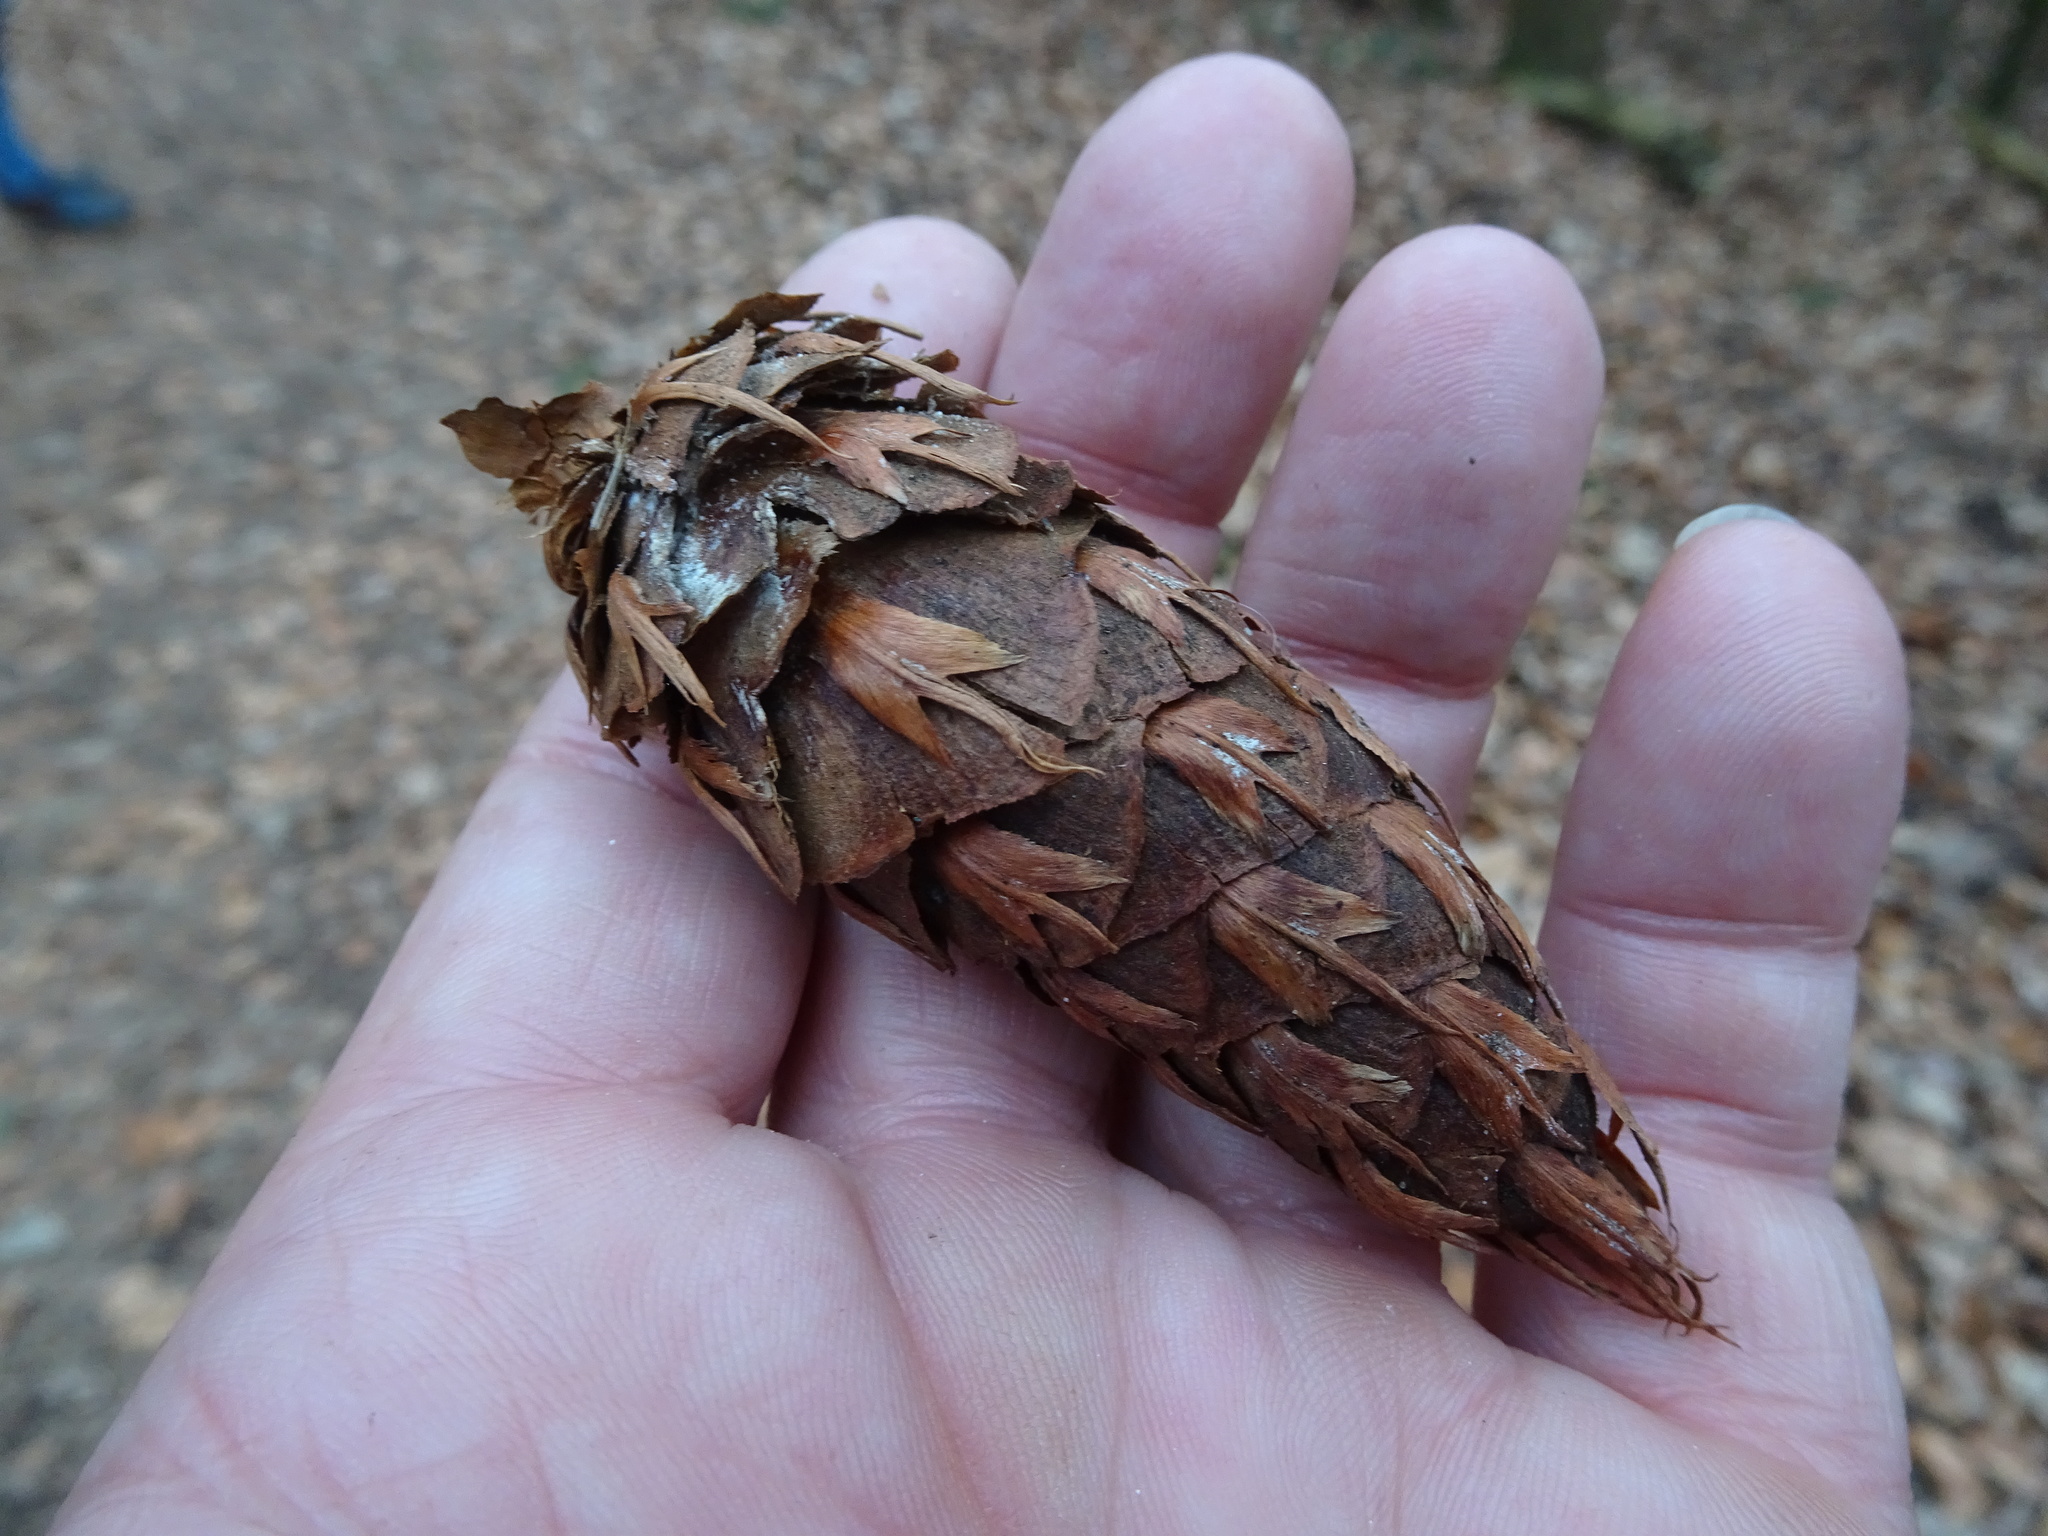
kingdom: Plantae
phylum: Tracheophyta
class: Pinopsida
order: Pinales
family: Pinaceae
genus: Pseudotsuga
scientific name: Pseudotsuga menziesii
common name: Douglas fir
